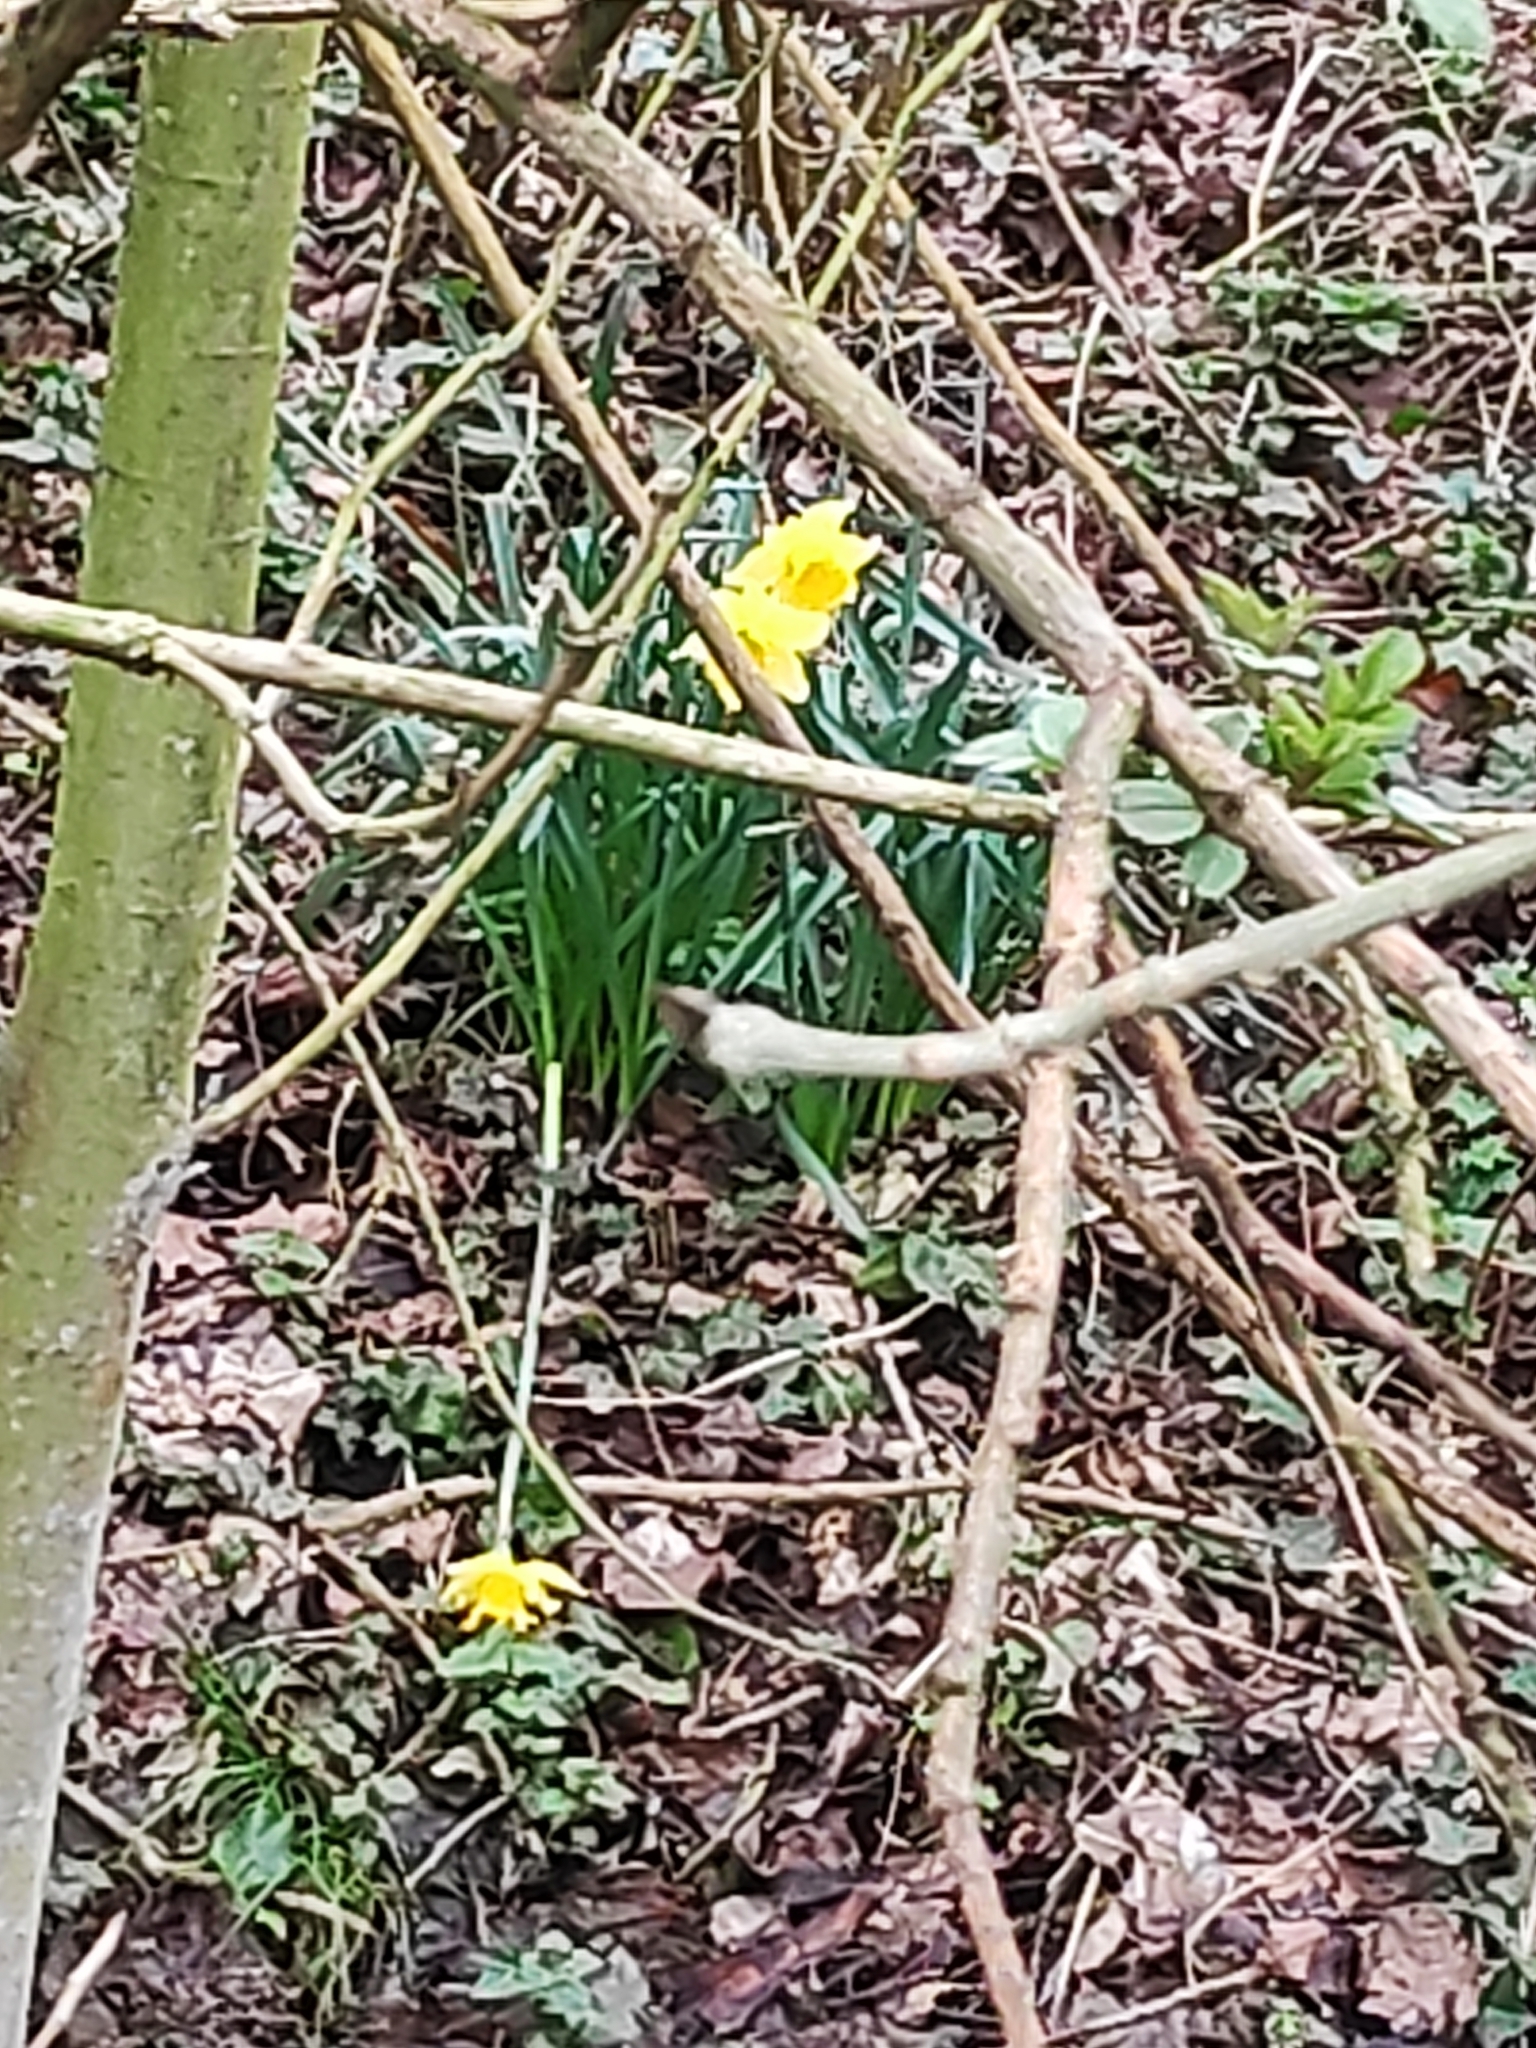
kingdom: Plantae
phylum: Tracheophyta
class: Liliopsida
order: Asparagales
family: Amaryllidaceae
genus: Narcissus
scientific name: Narcissus pseudonarcissus
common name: Daffodil
